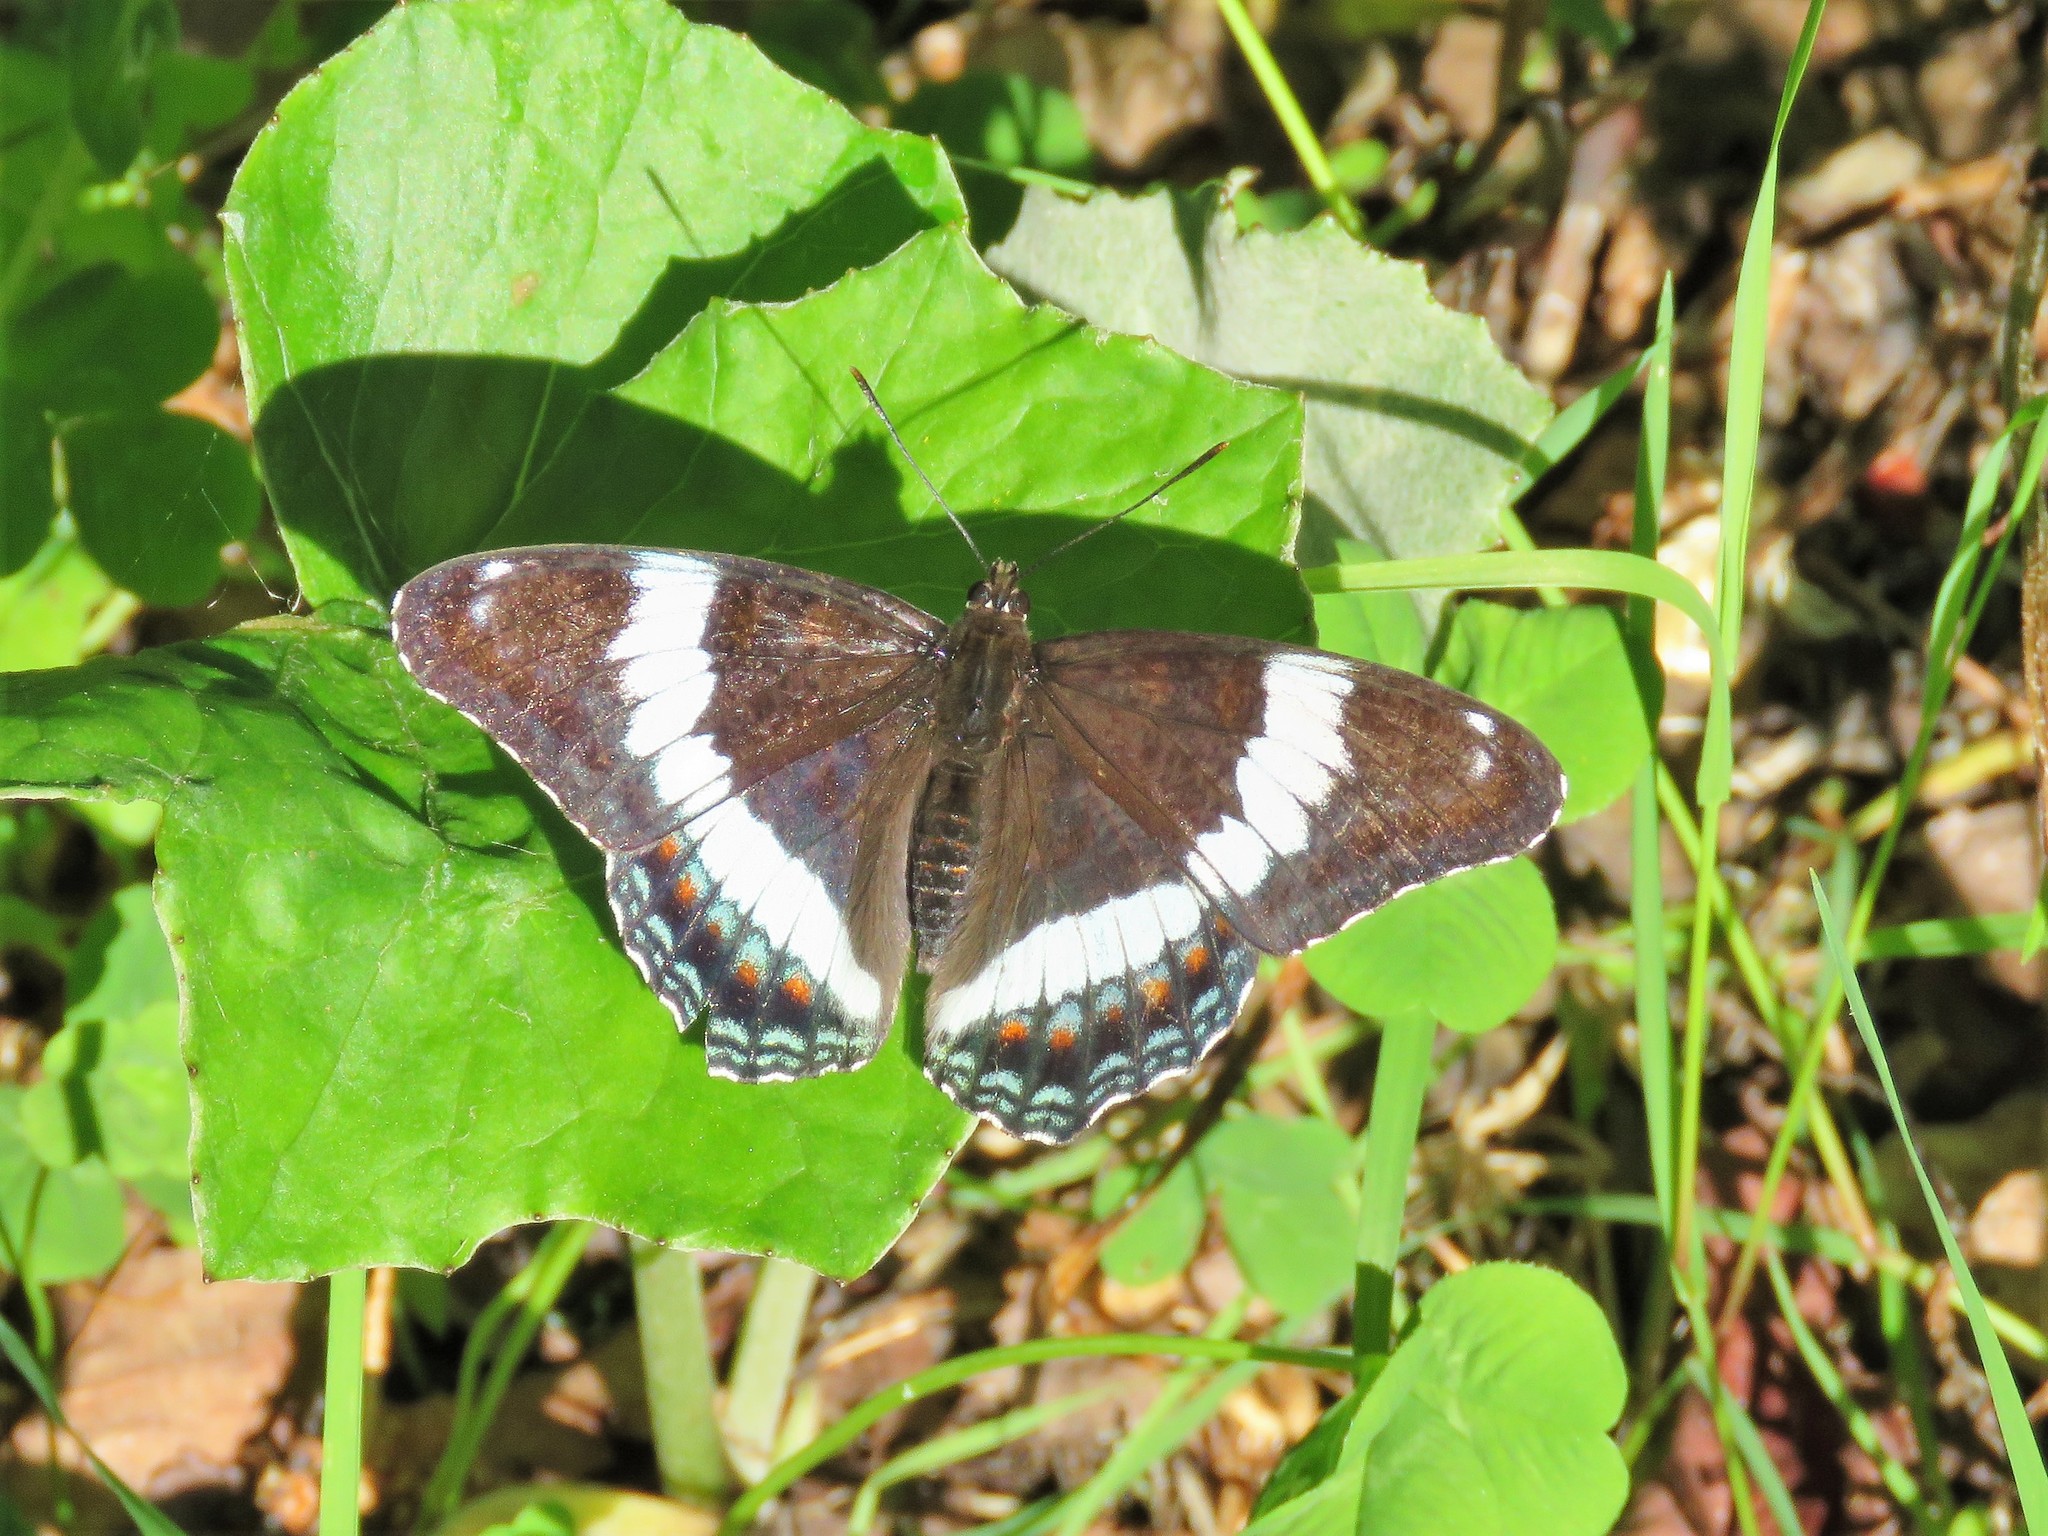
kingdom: Animalia
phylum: Arthropoda
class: Insecta
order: Lepidoptera
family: Nymphalidae
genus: Limenitis
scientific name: Limenitis arthemis
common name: Red-spotted admiral
